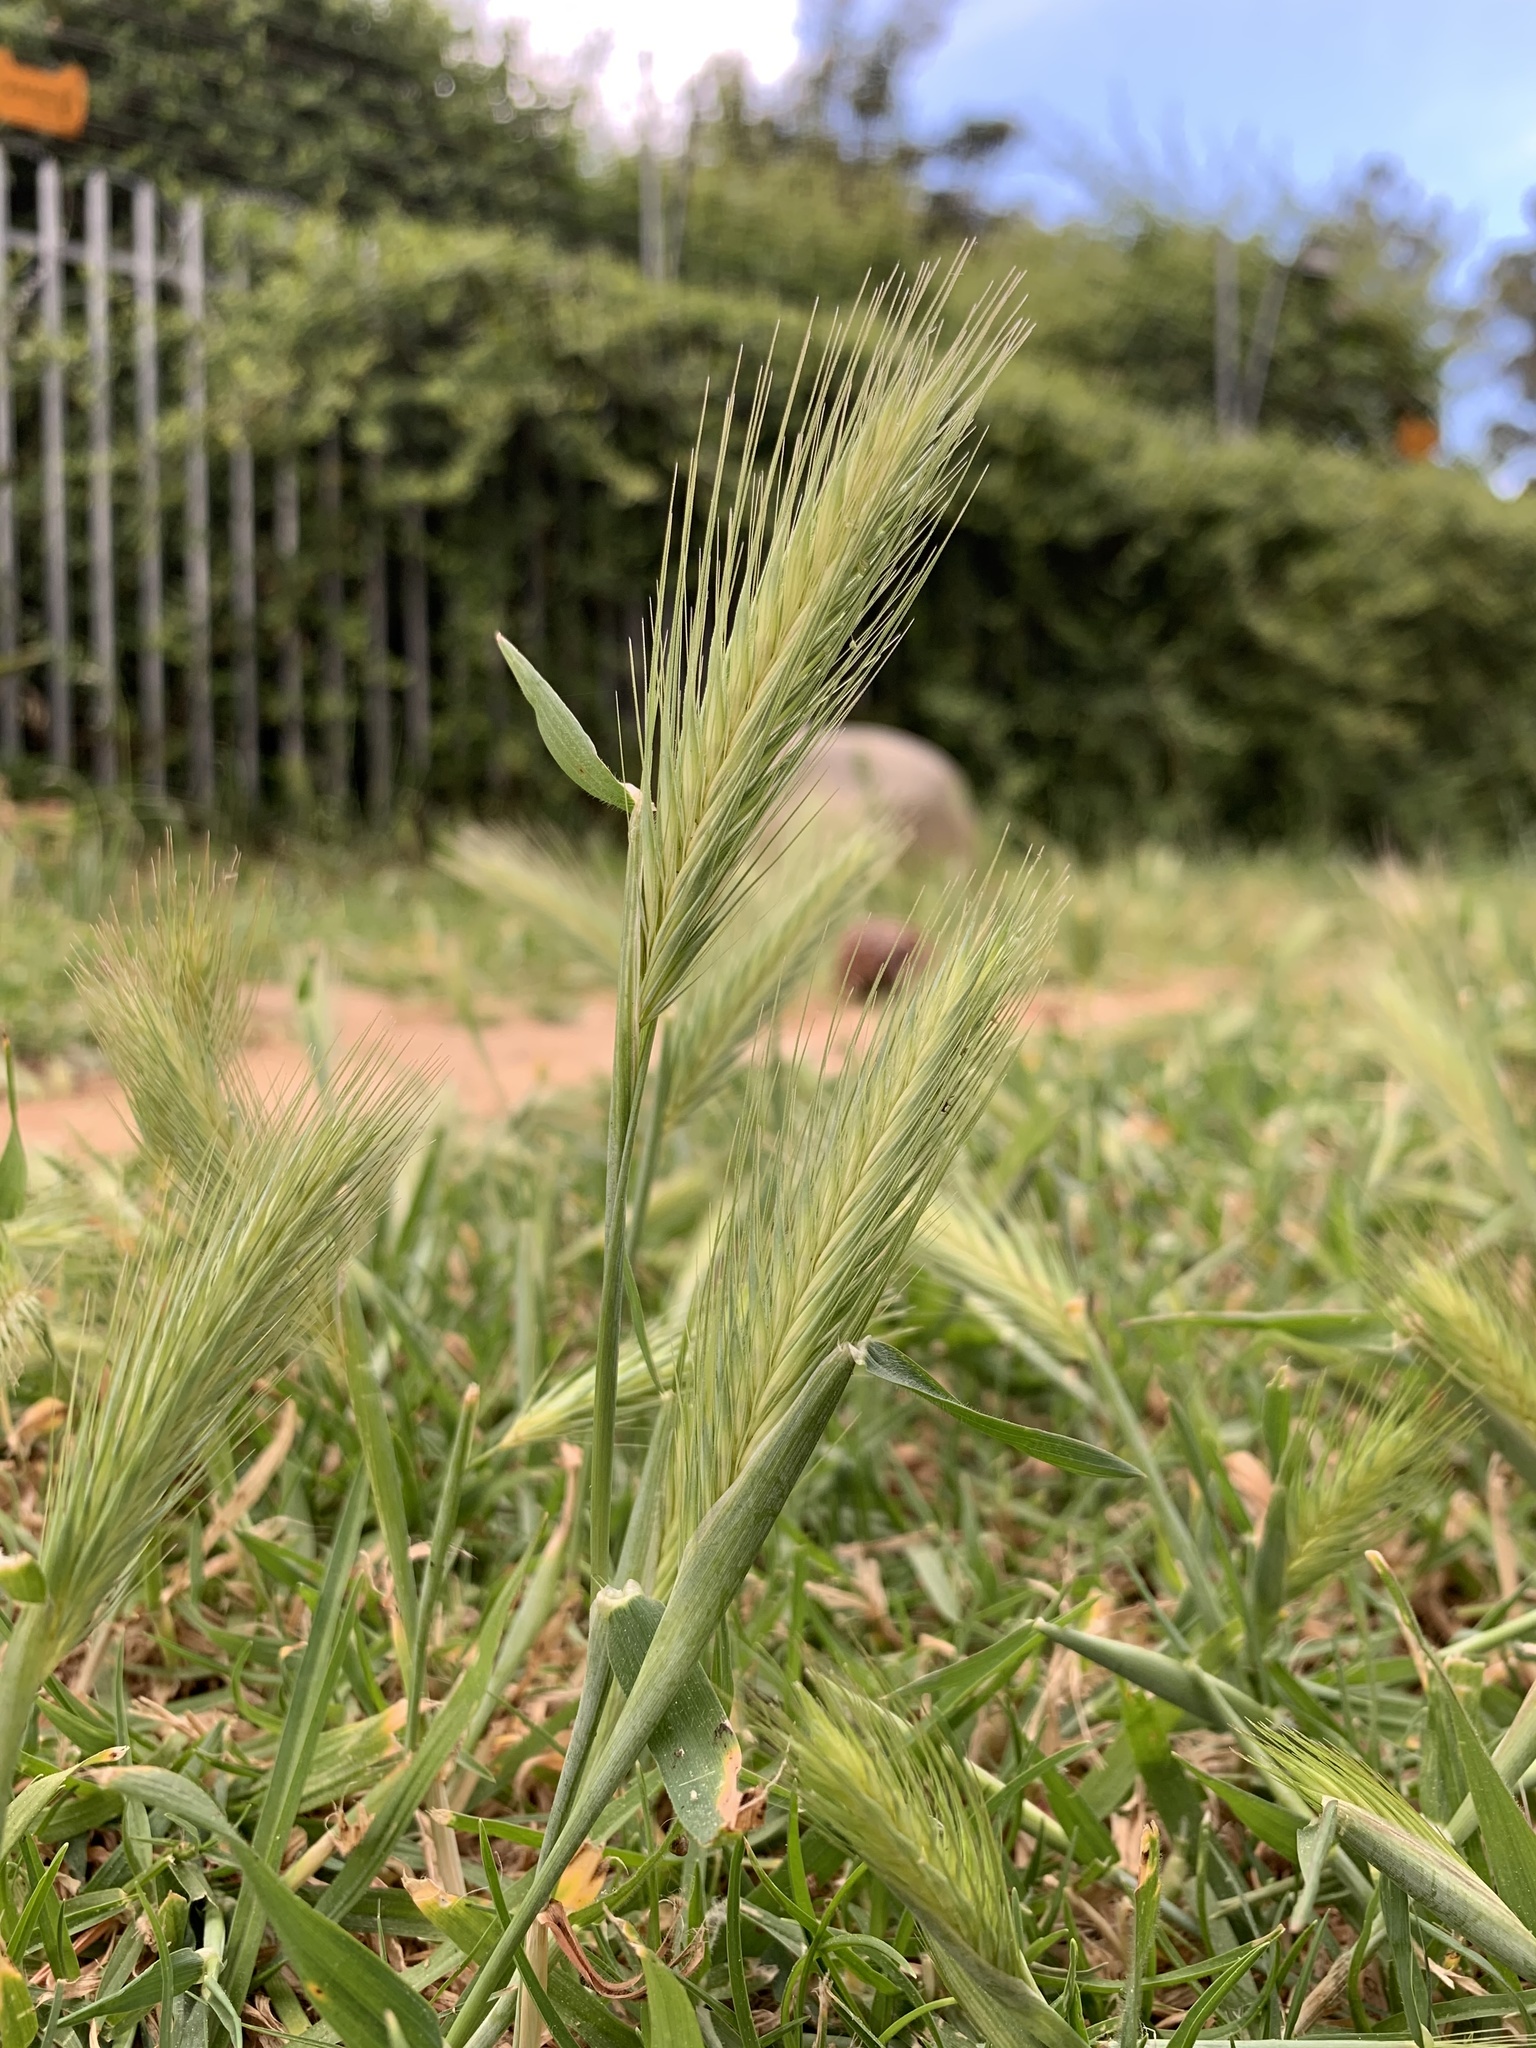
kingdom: Plantae
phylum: Tracheophyta
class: Liliopsida
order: Poales
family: Poaceae
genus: Hordeum
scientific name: Hordeum murinum
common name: Wall barley
